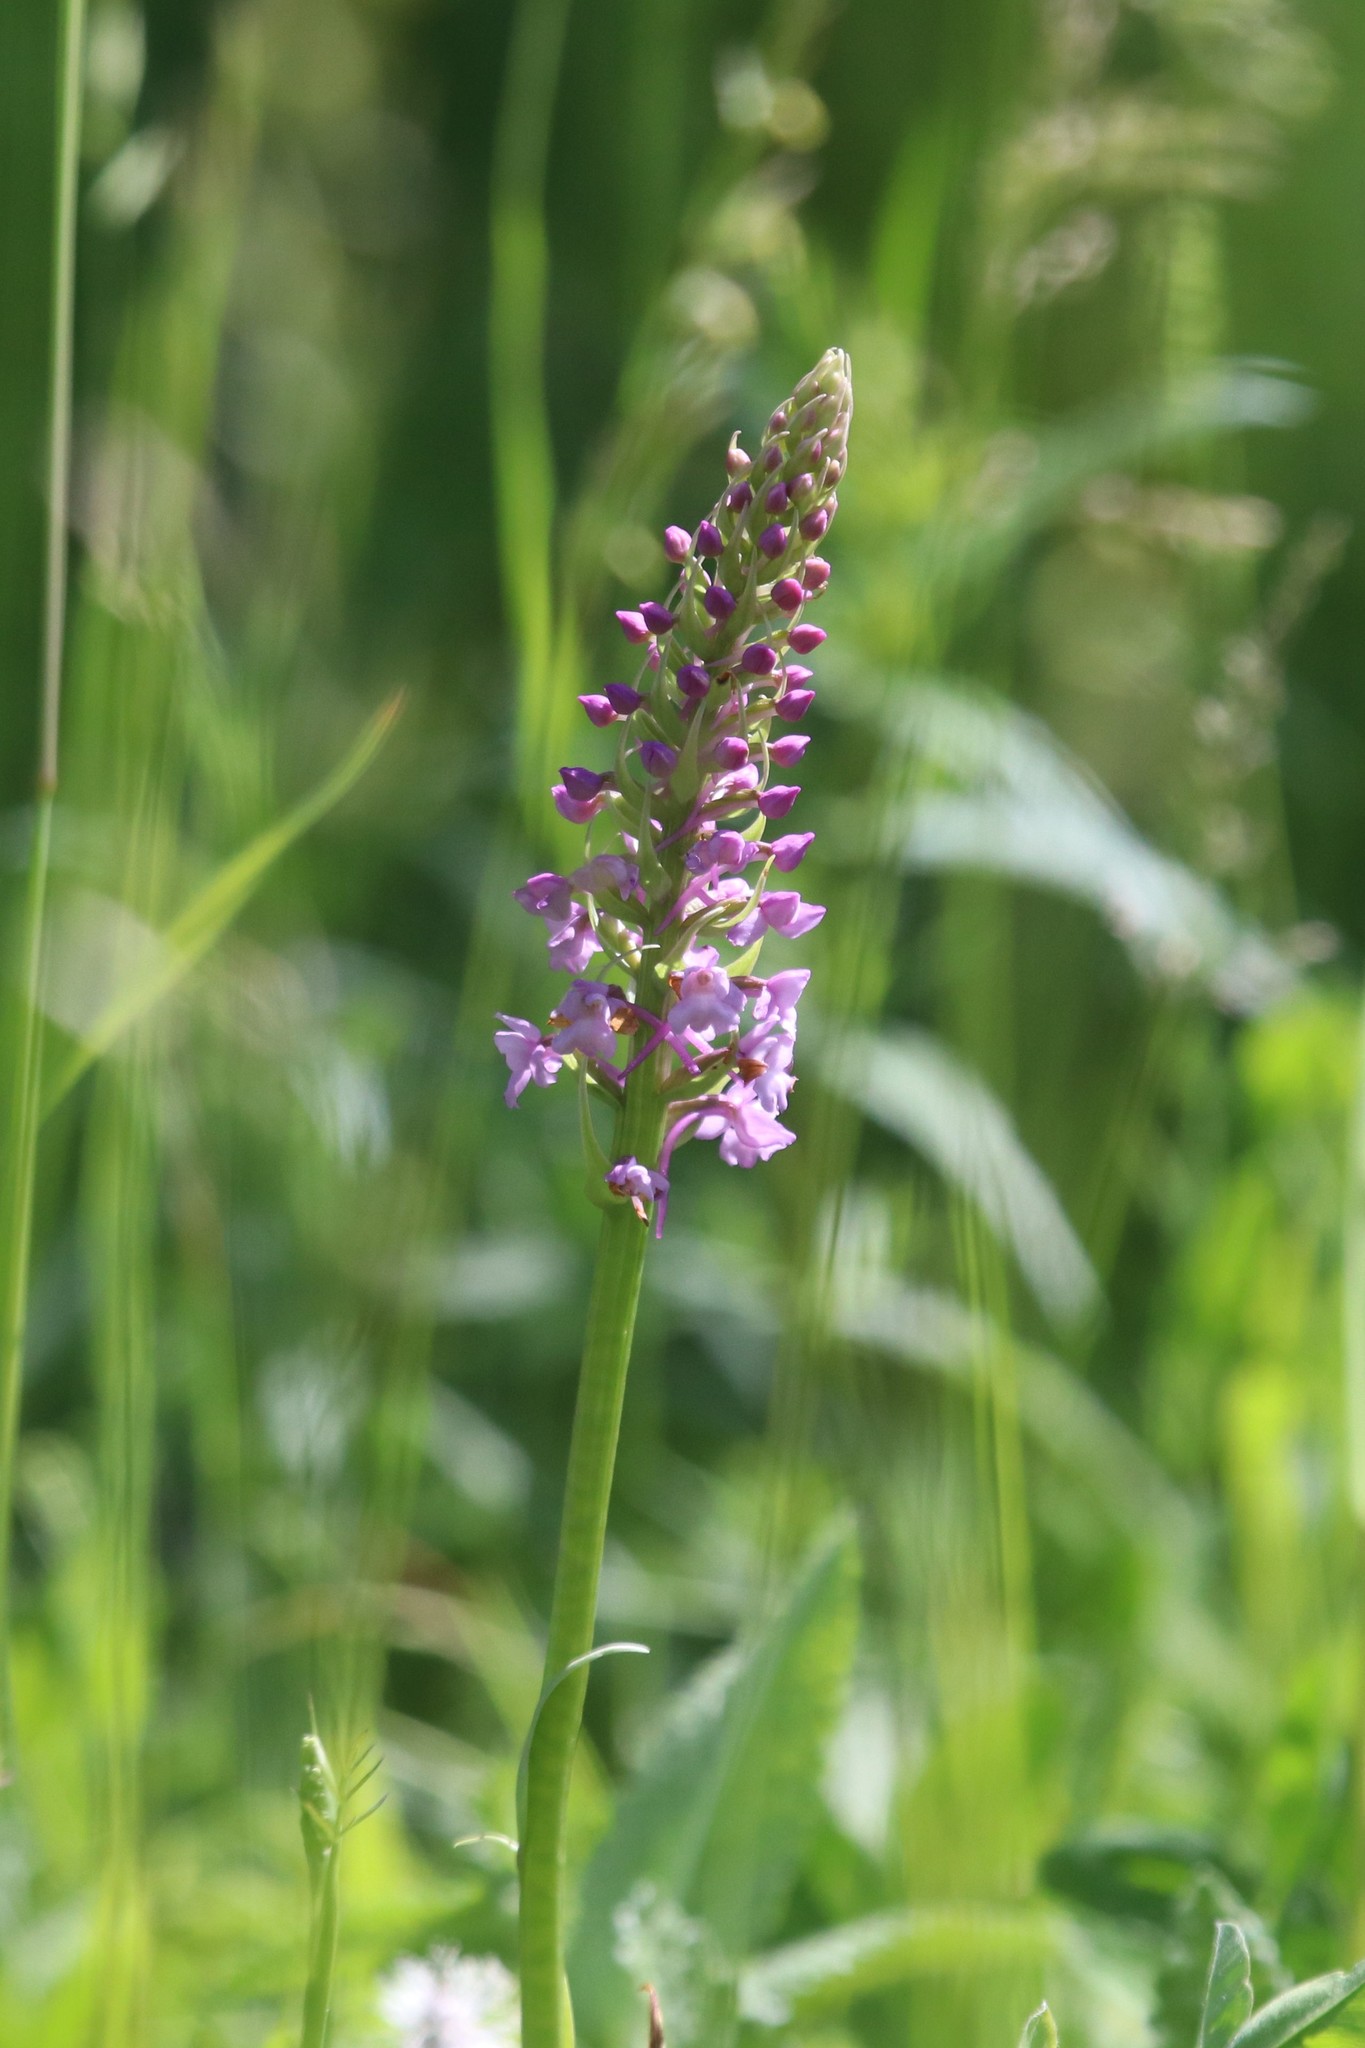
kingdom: Plantae
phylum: Tracheophyta
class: Liliopsida
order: Asparagales
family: Orchidaceae
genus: Gymnadenia
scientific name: Gymnadenia conopsea
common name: Fragrant orchid
